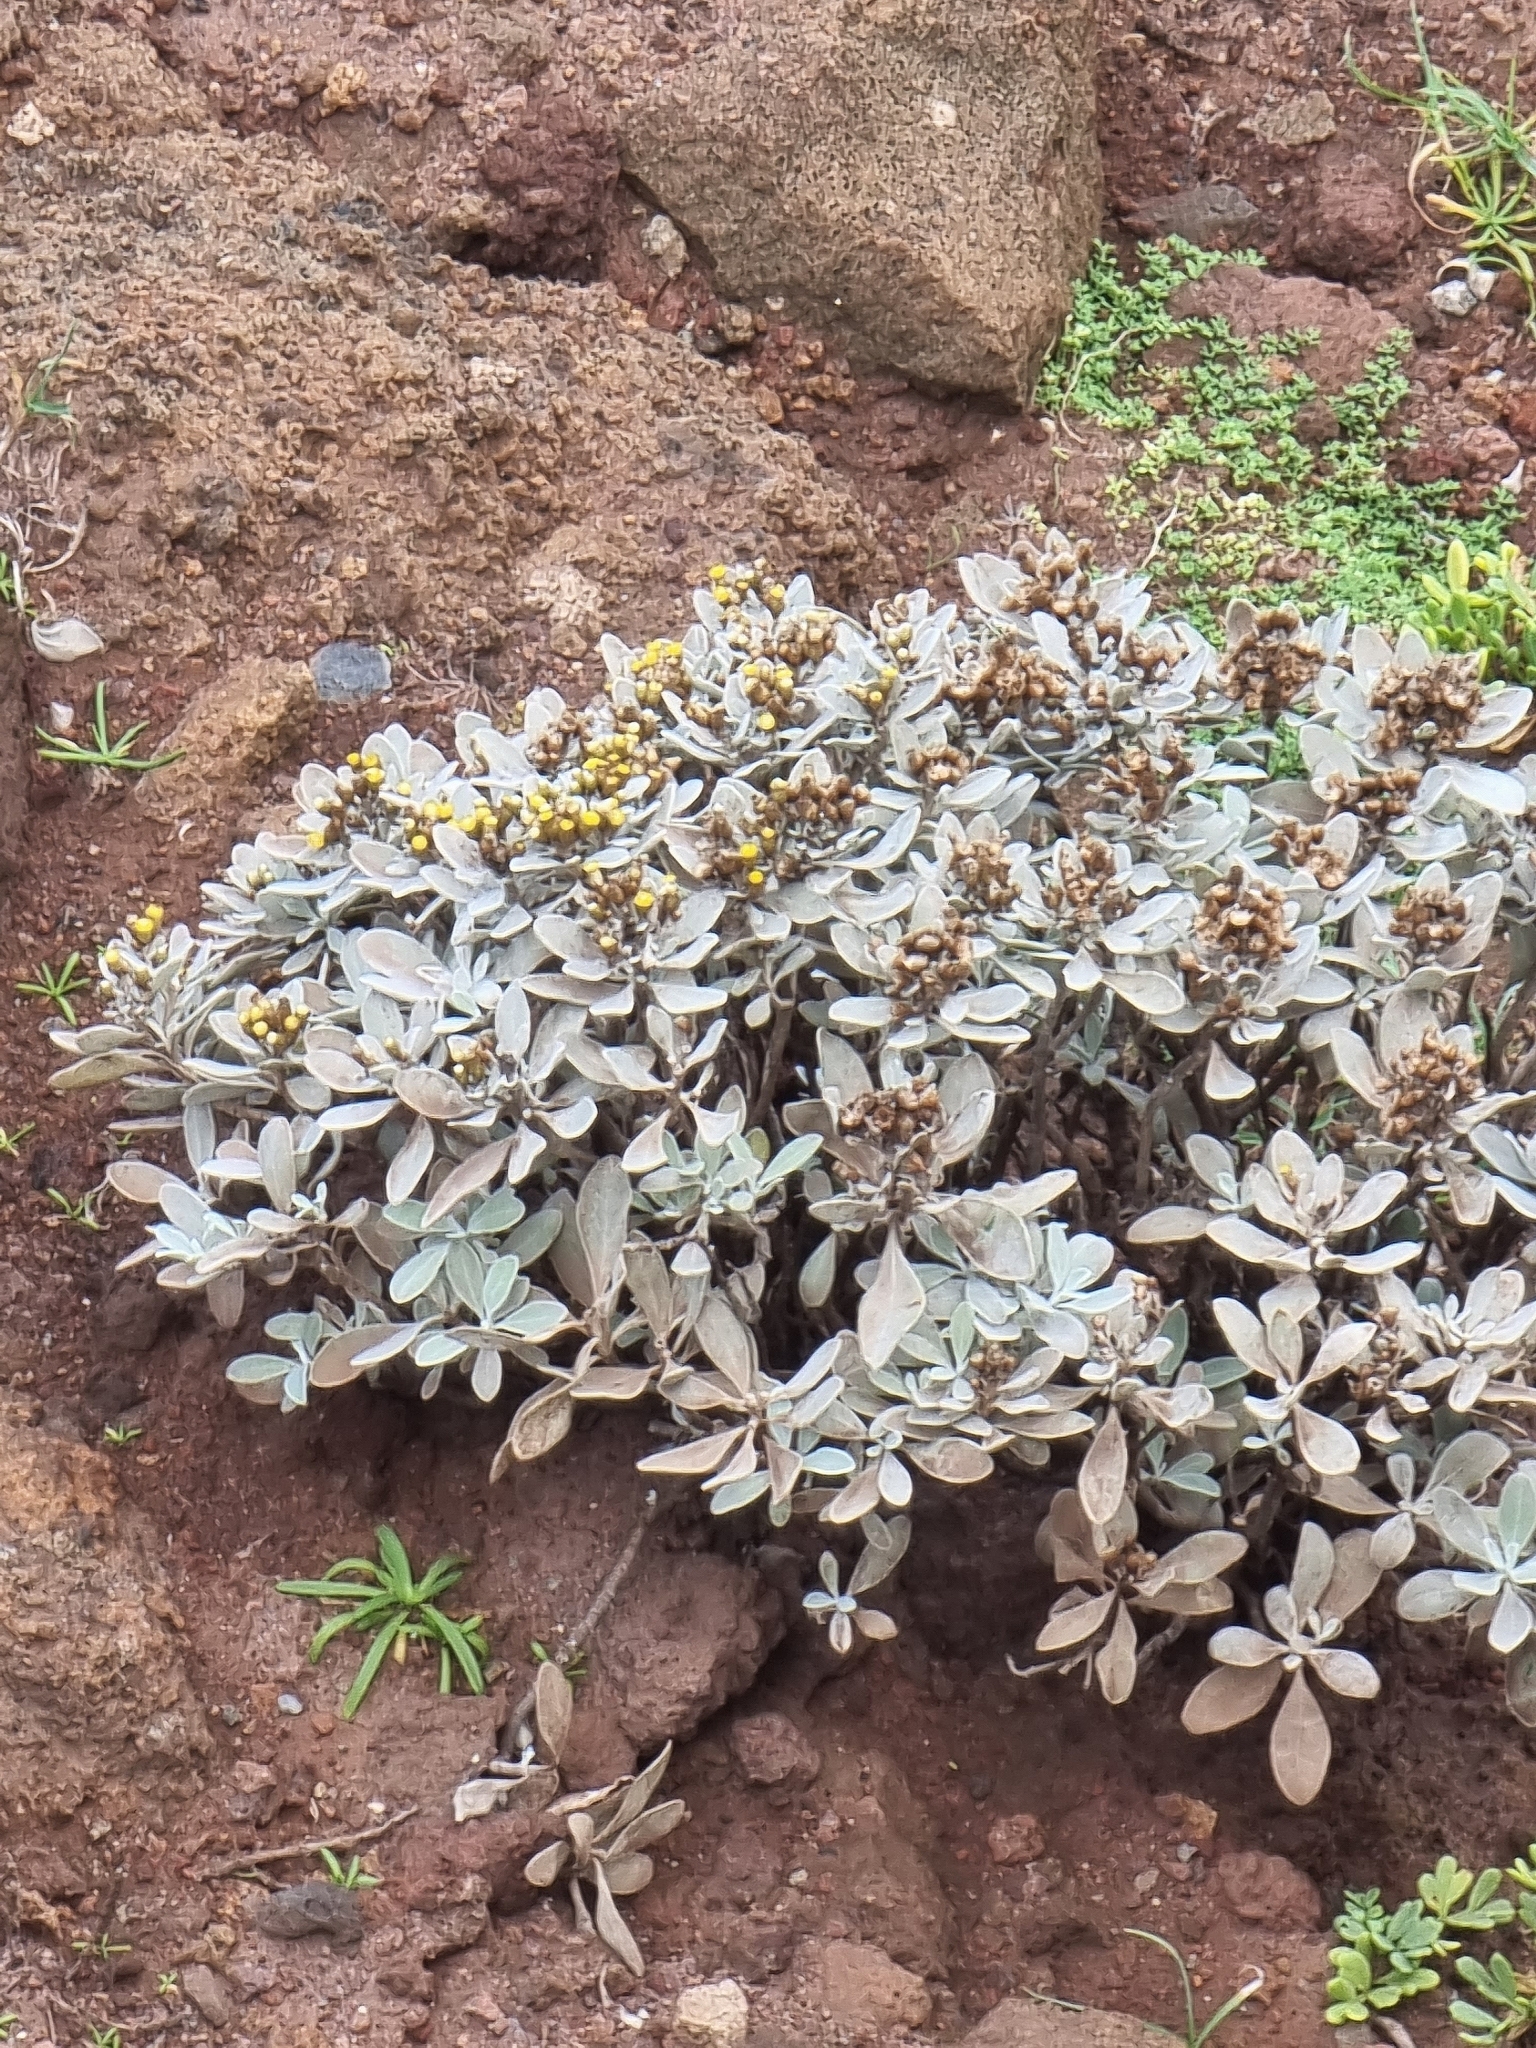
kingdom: Plantae
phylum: Tracheophyta
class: Magnoliopsida
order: Asterales
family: Asteraceae
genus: Helichrysum
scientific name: Helichrysum obconicum
